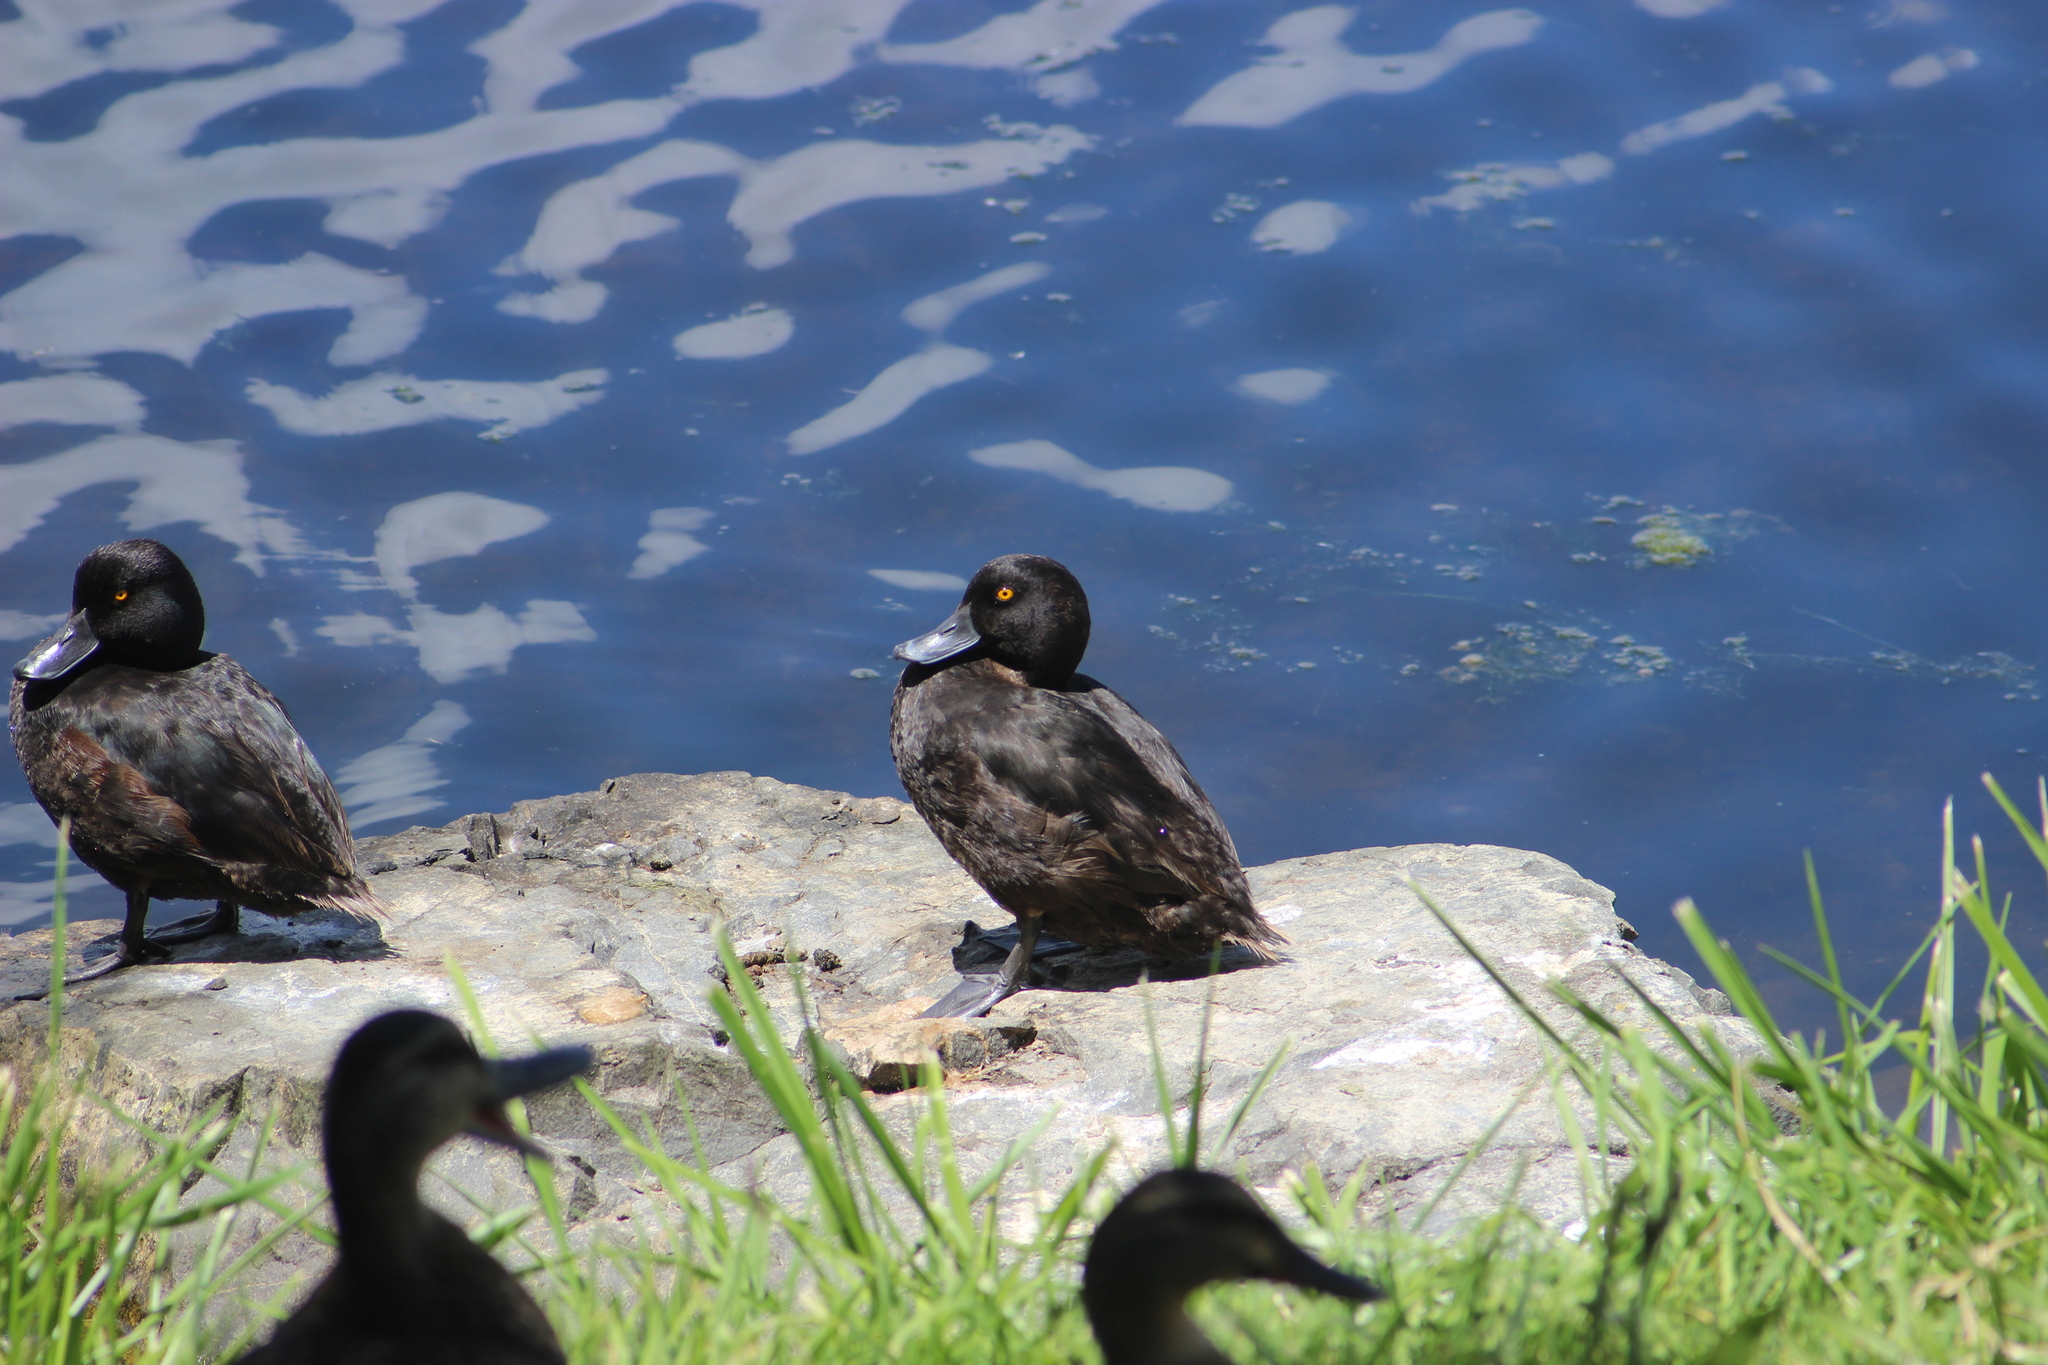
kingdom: Animalia
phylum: Chordata
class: Aves
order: Anseriformes
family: Anatidae
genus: Aythya
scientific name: Aythya novaeseelandiae
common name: New zealand scaup
